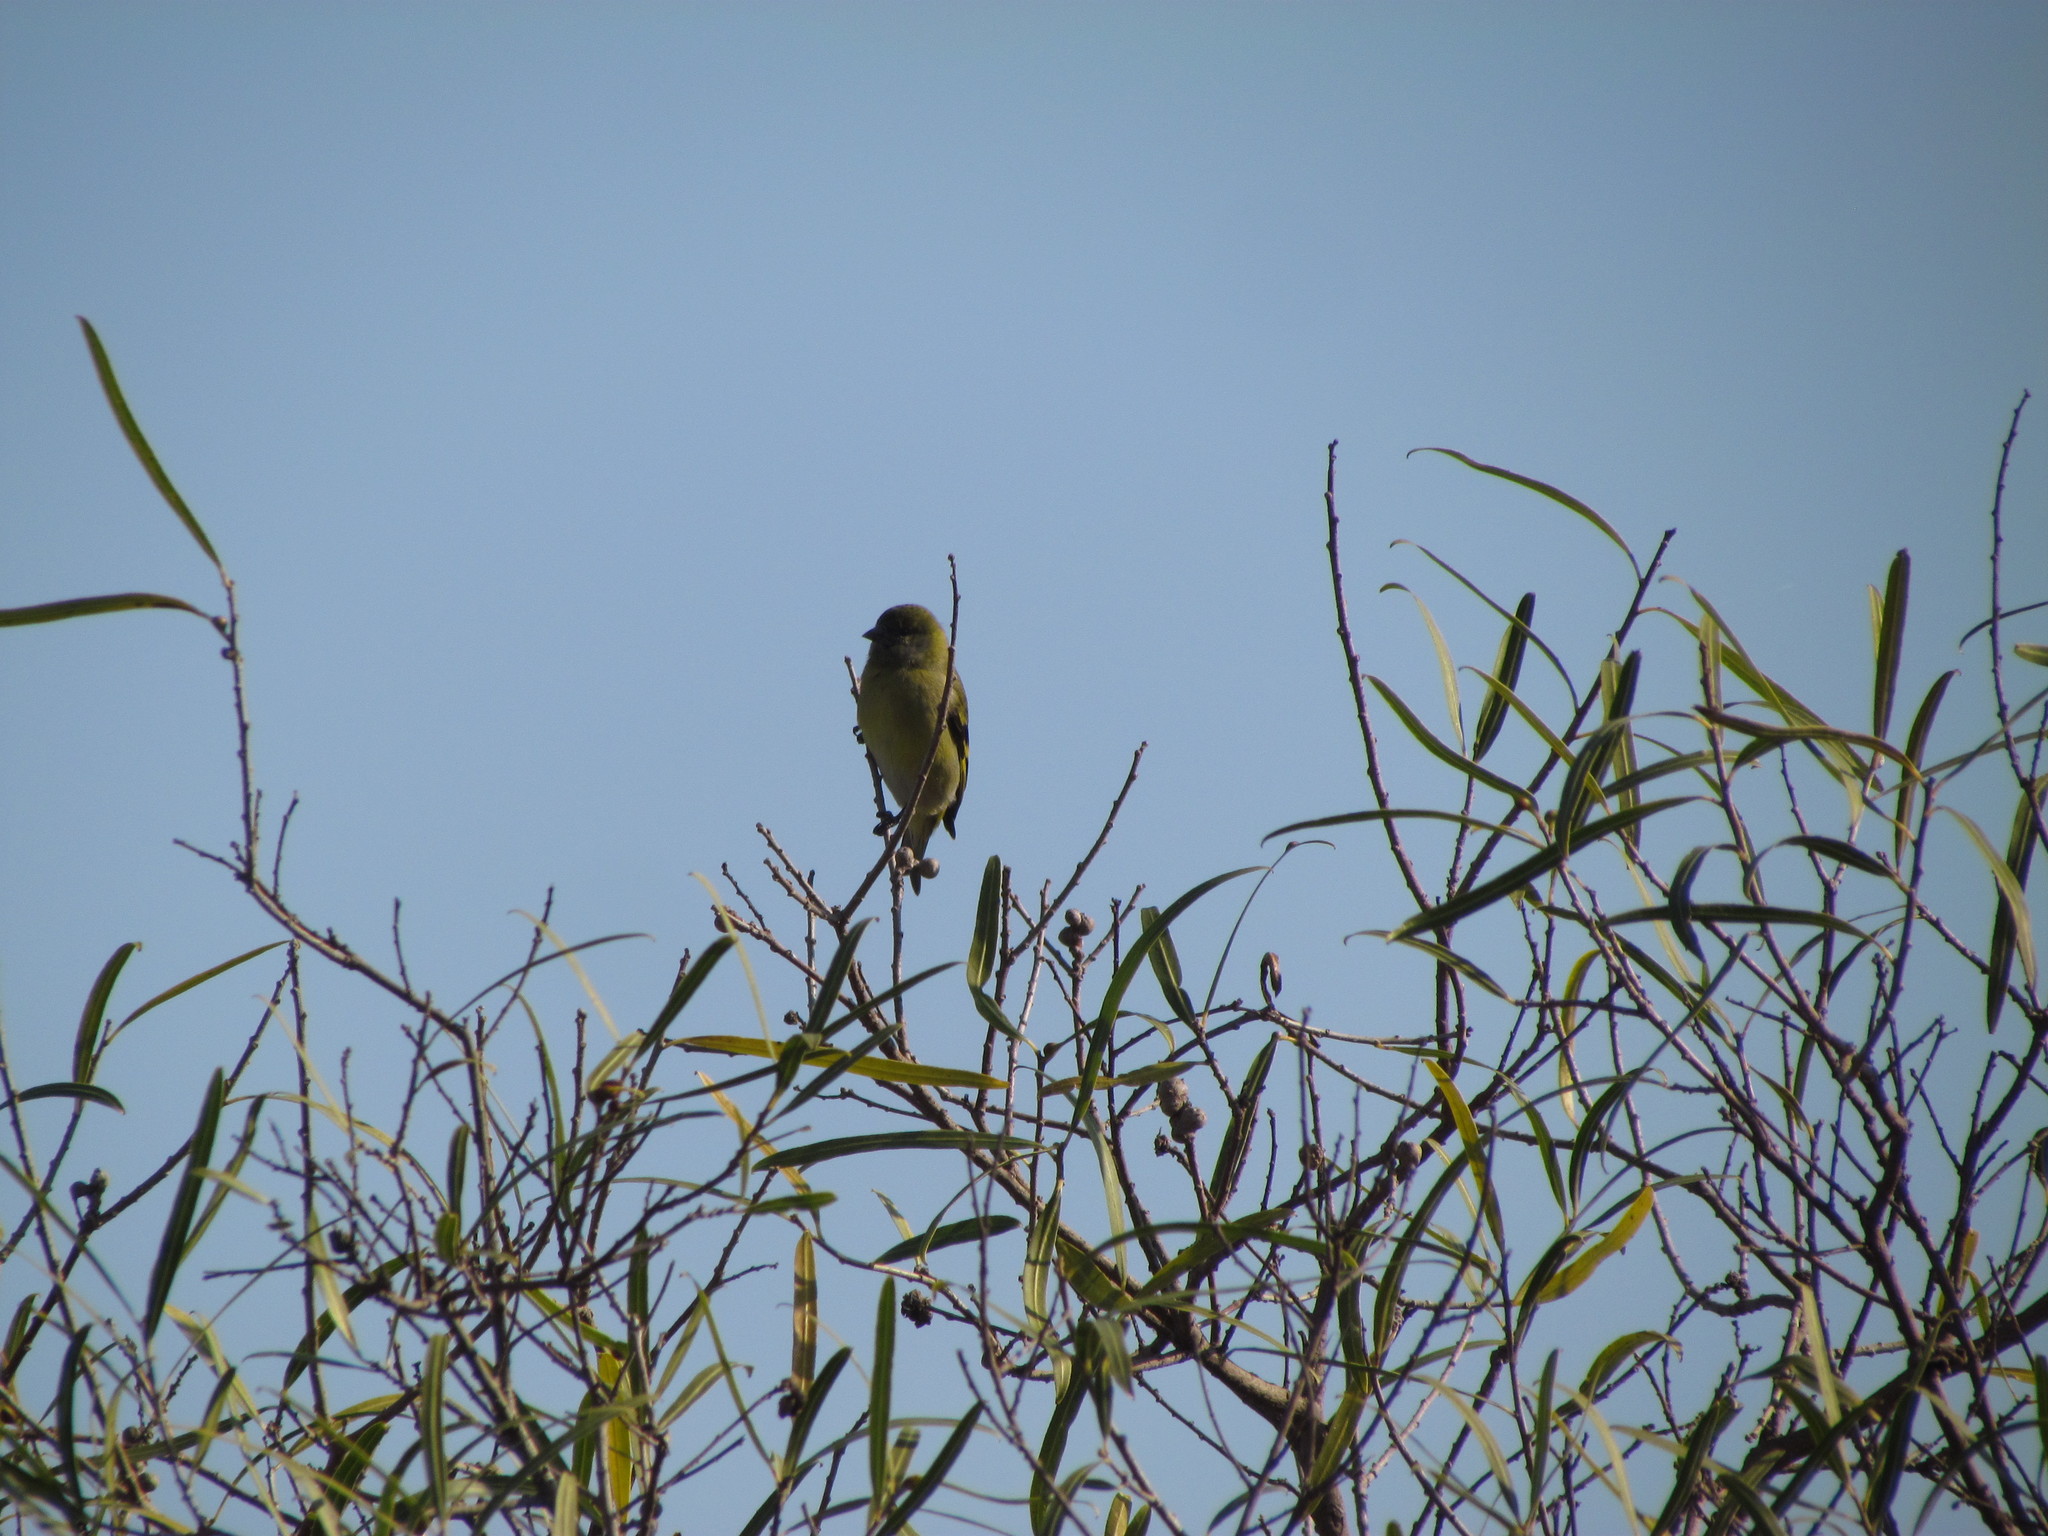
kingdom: Animalia
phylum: Chordata
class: Aves
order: Passeriformes
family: Fringillidae
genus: Spinus
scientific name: Spinus magellanicus
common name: Hooded siskin
